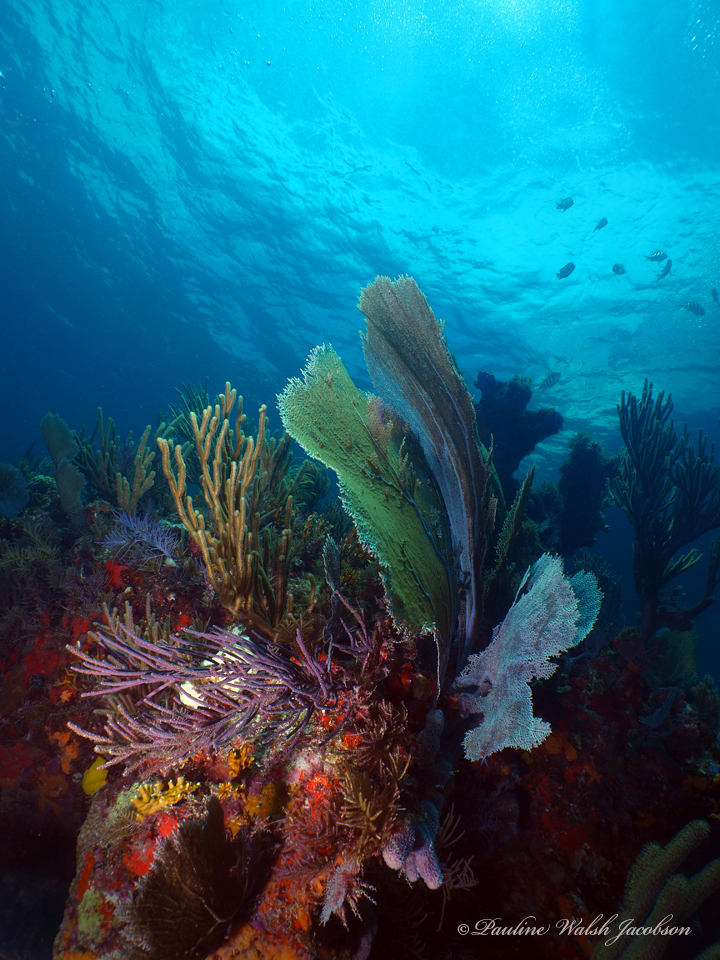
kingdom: Animalia
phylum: Cnidaria
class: Anthozoa
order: Malacalcyonacea
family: Gorgoniidae
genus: Gorgonia
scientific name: Gorgonia ventalina
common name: Common sea fan
